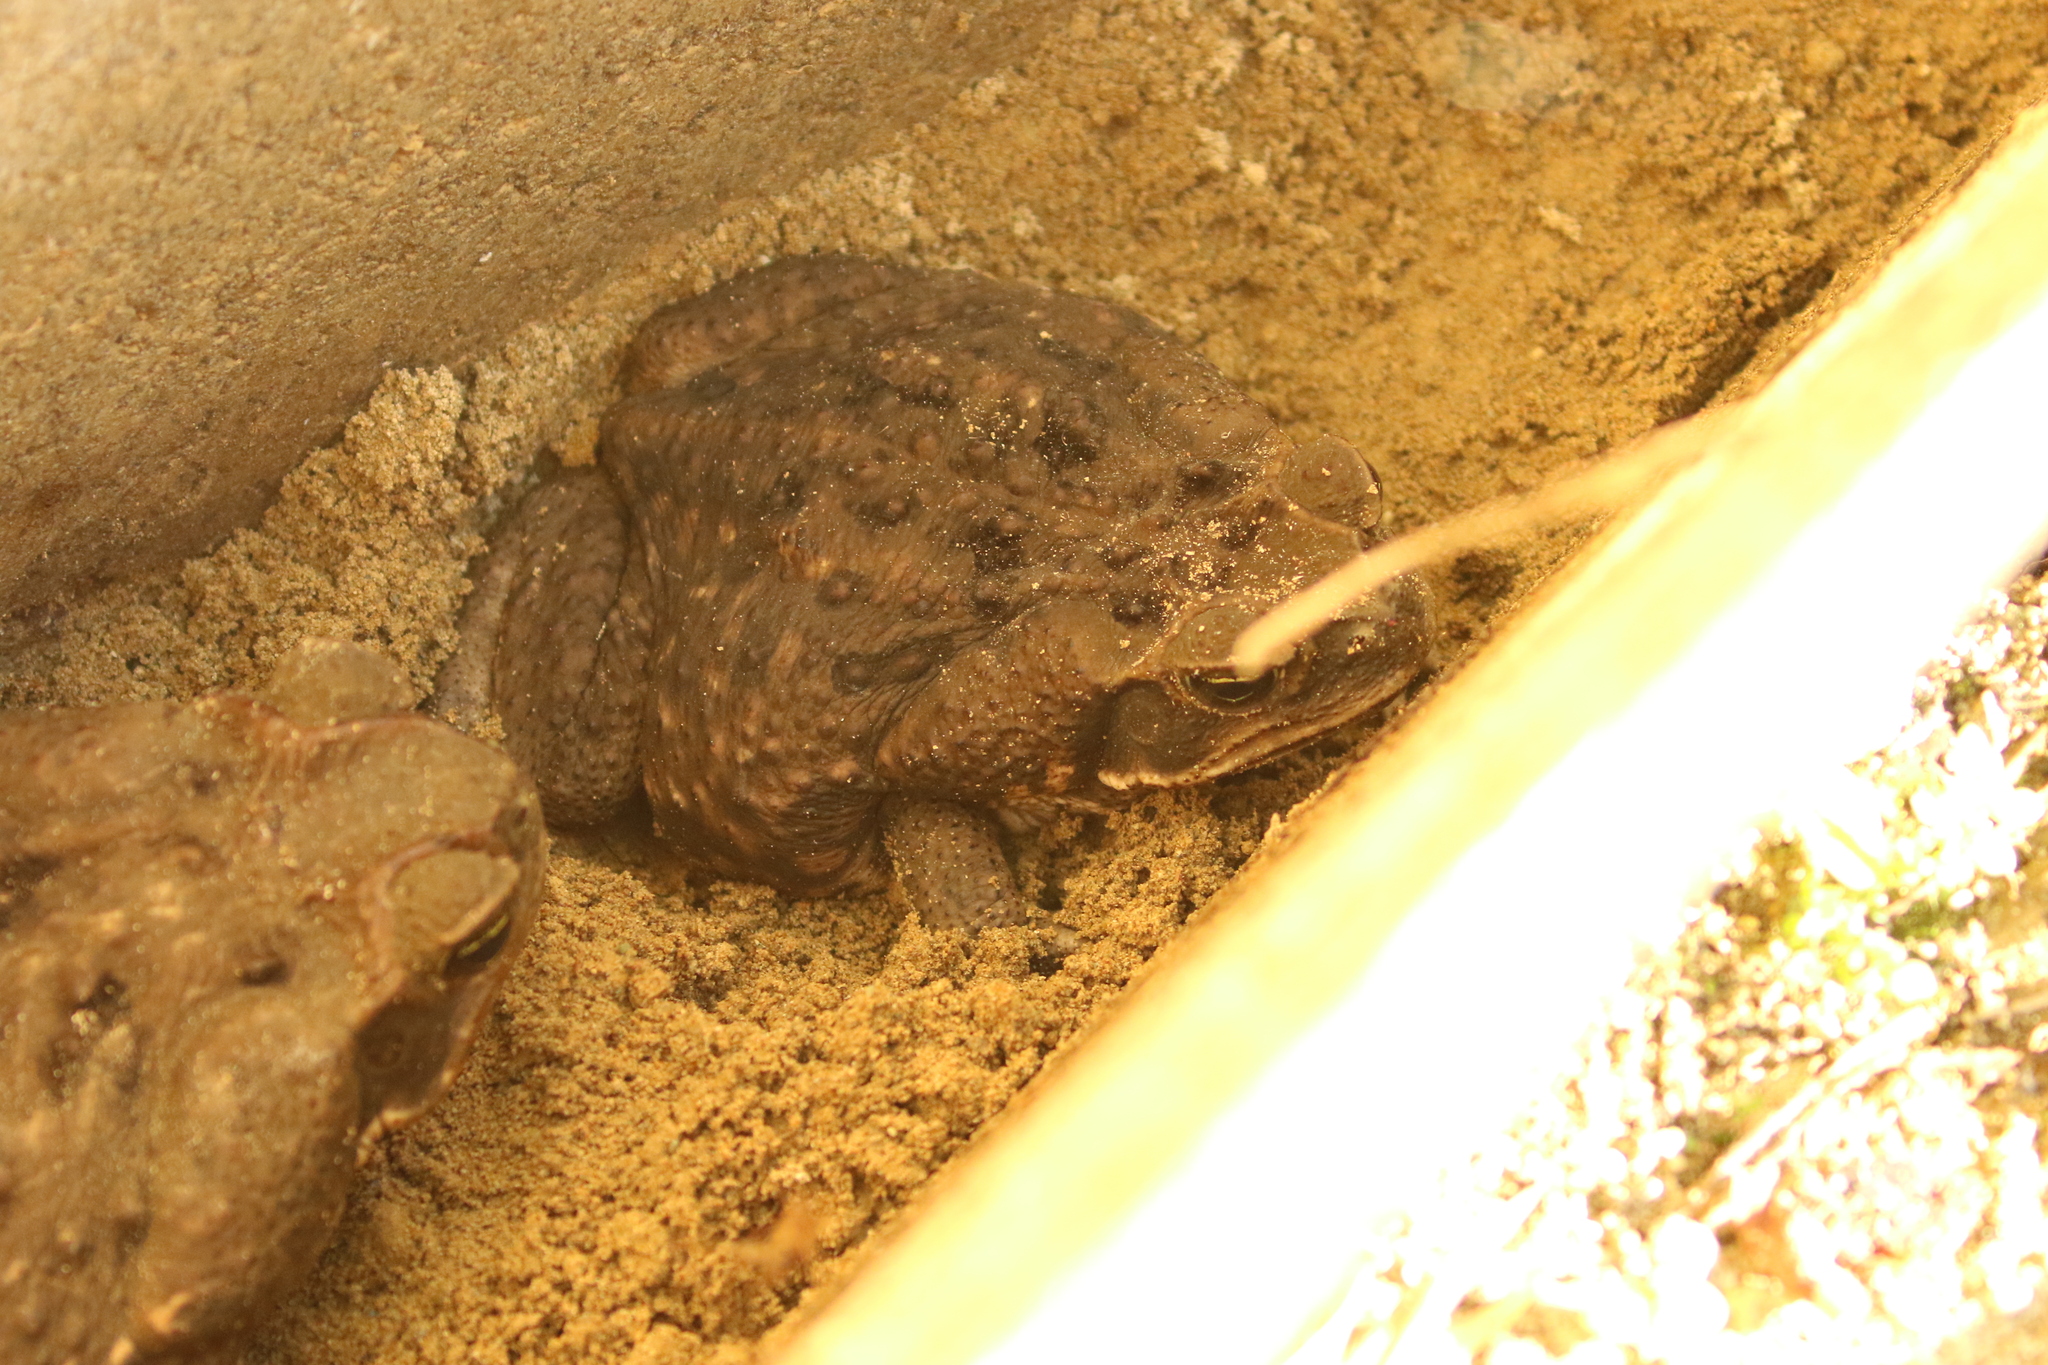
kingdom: Animalia
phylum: Chordata
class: Amphibia
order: Anura
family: Bufonidae
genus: Rhinella
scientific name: Rhinella horribilis
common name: Mesoamerican cane toad
